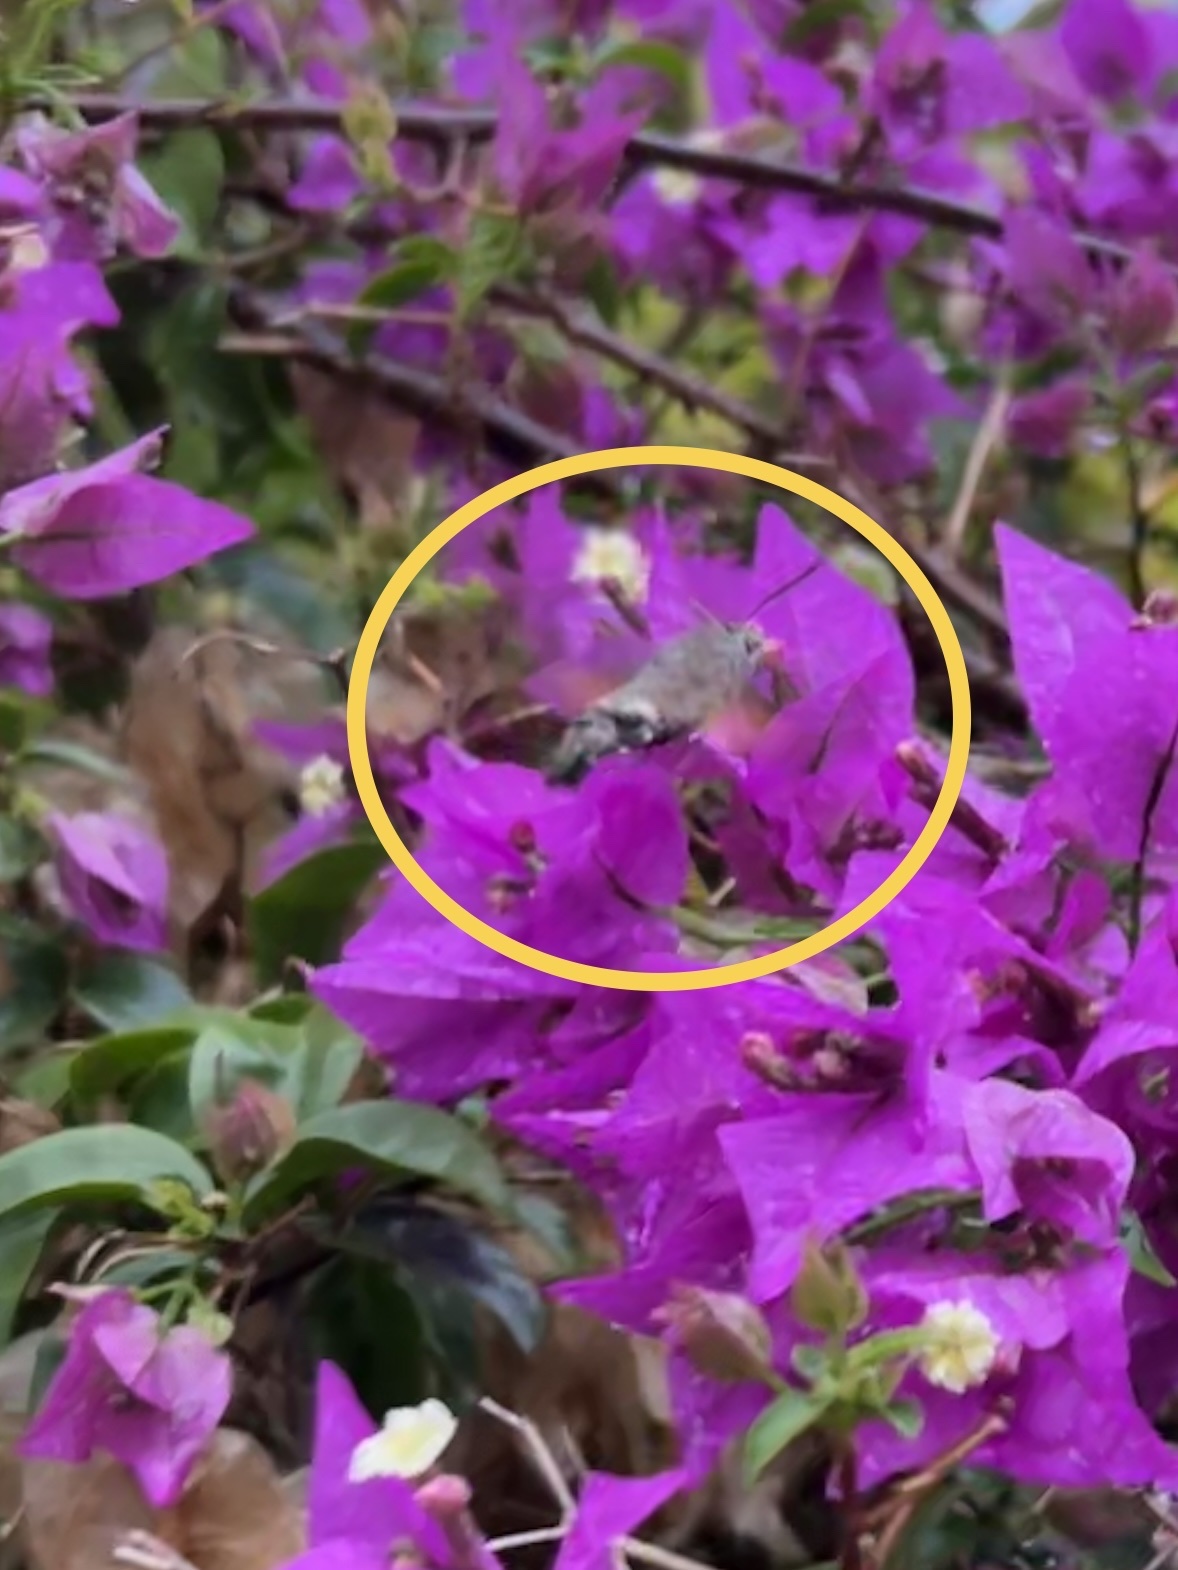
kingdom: Animalia
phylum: Arthropoda
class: Insecta
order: Lepidoptera
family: Sphingidae
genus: Macroglossum
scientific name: Macroglossum stellatarum
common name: Humming-bird hawk-moth
